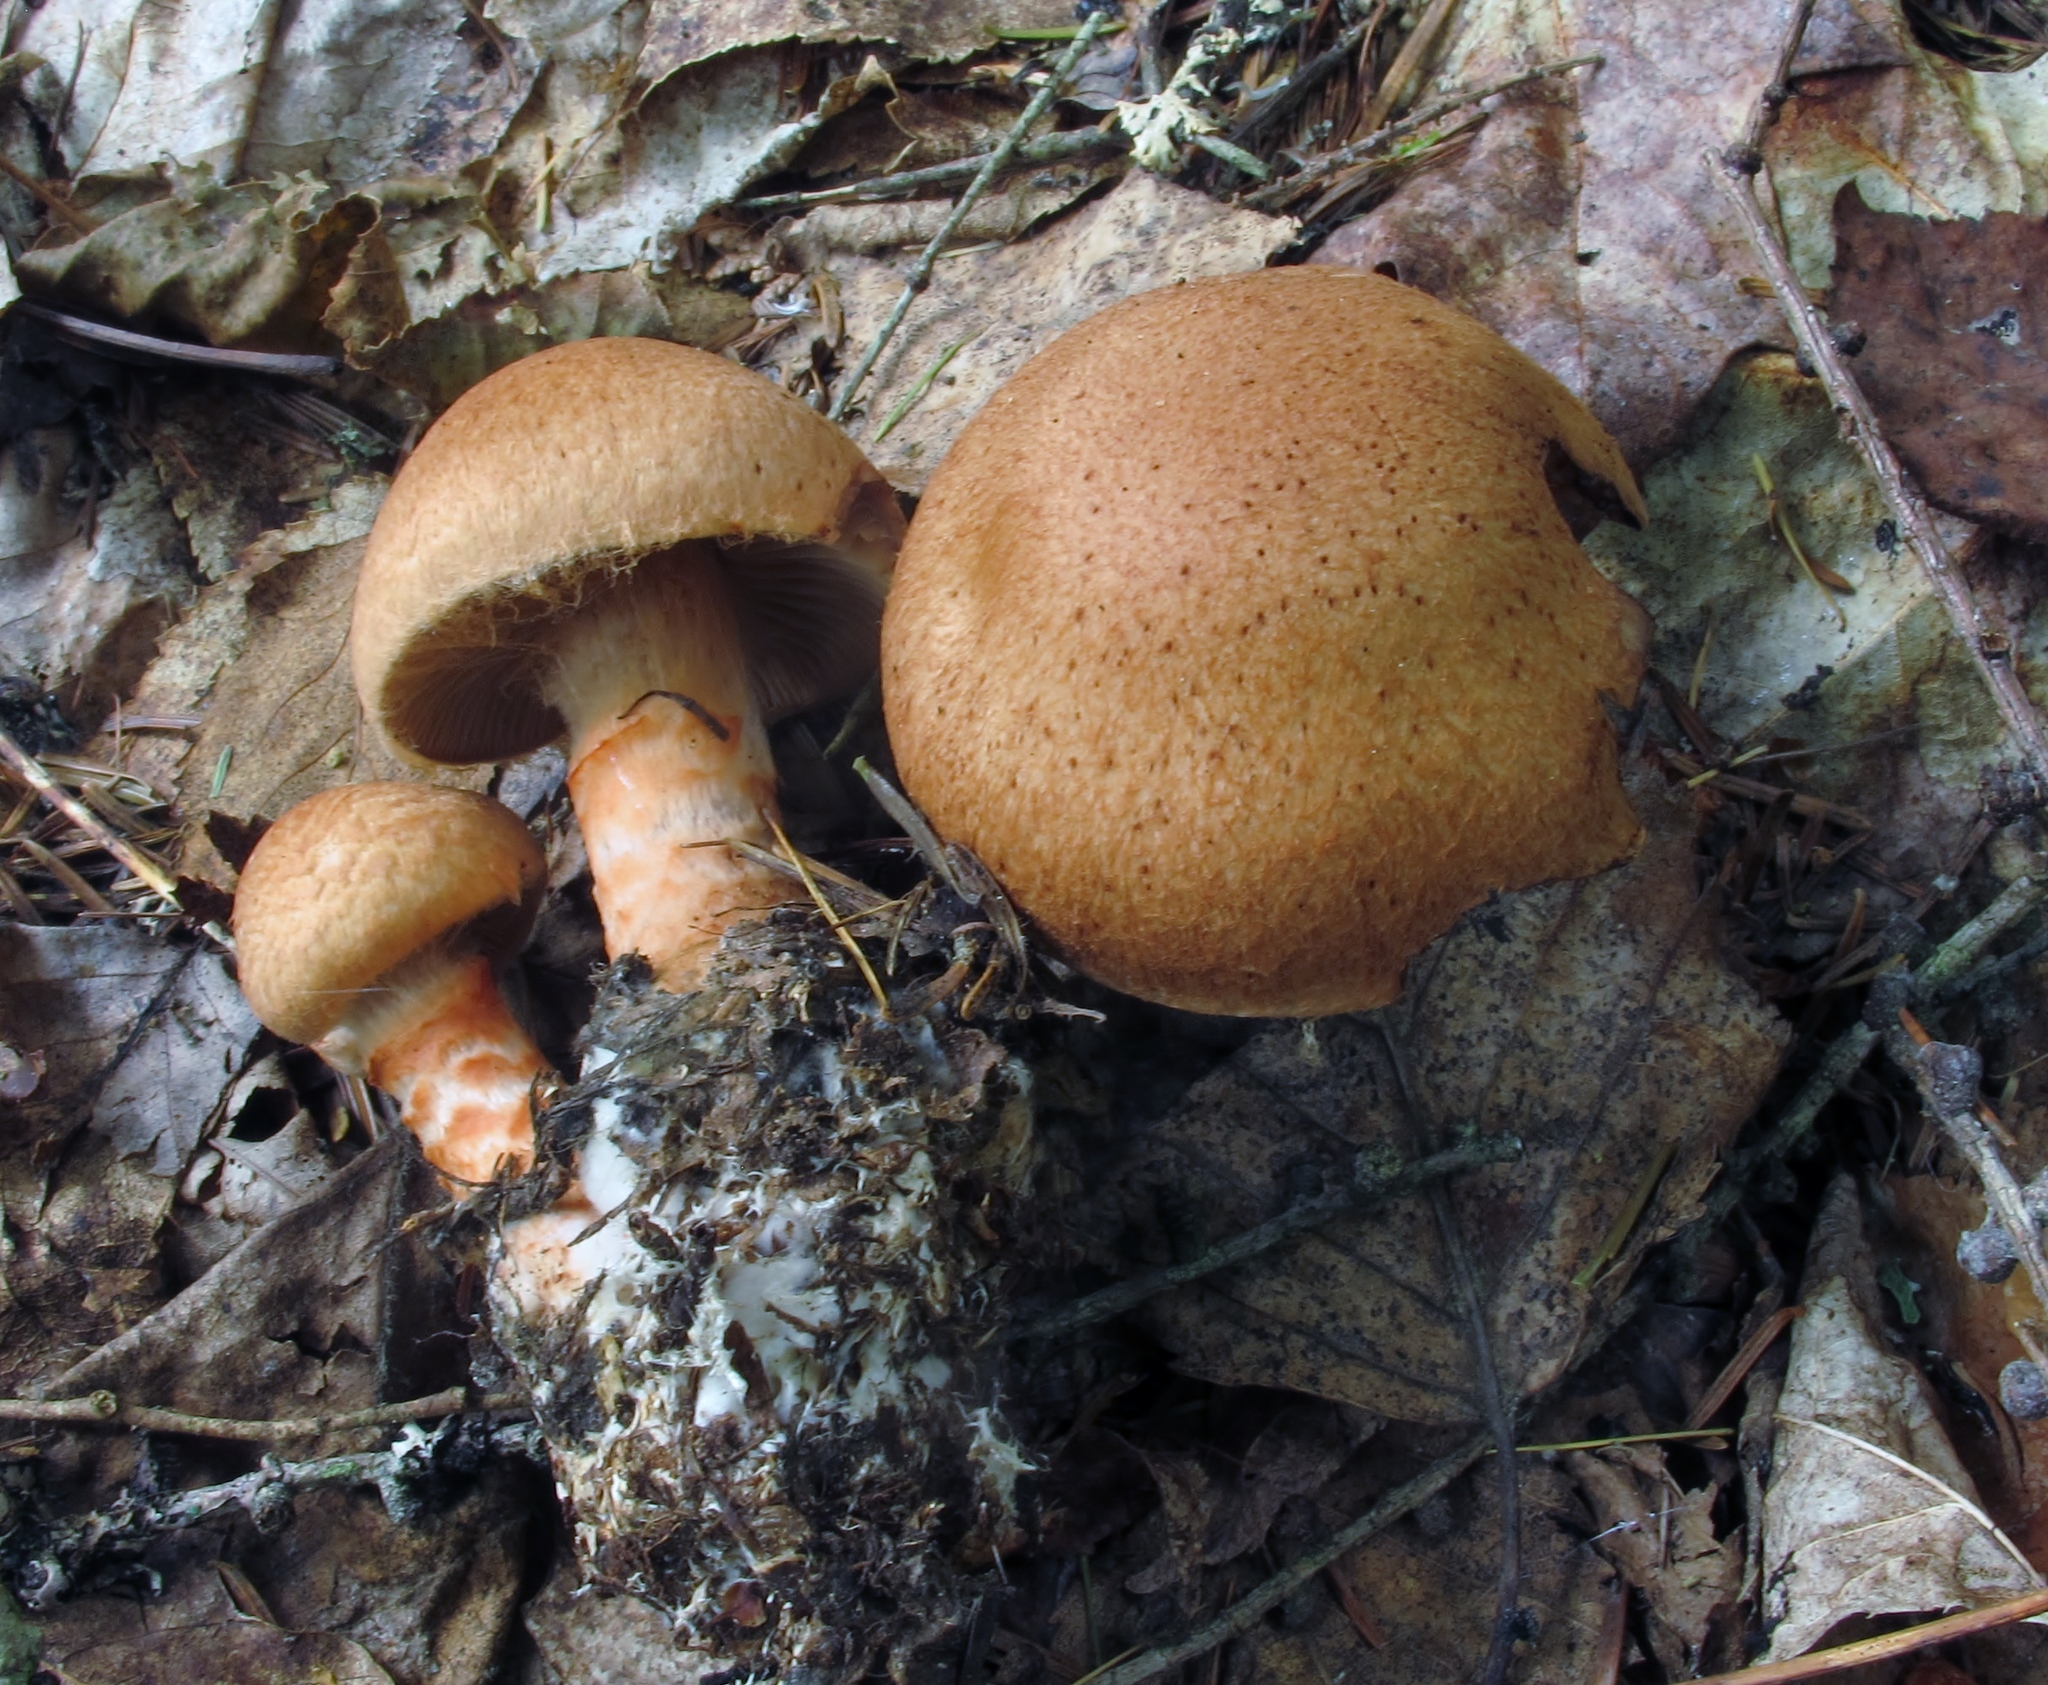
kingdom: Fungi
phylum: Basidiomycota
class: Agaricomycetes
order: Agaricales
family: Cortinariaceae
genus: Cortinarius
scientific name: Cortinarius armillatus
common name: Red banded webcap
